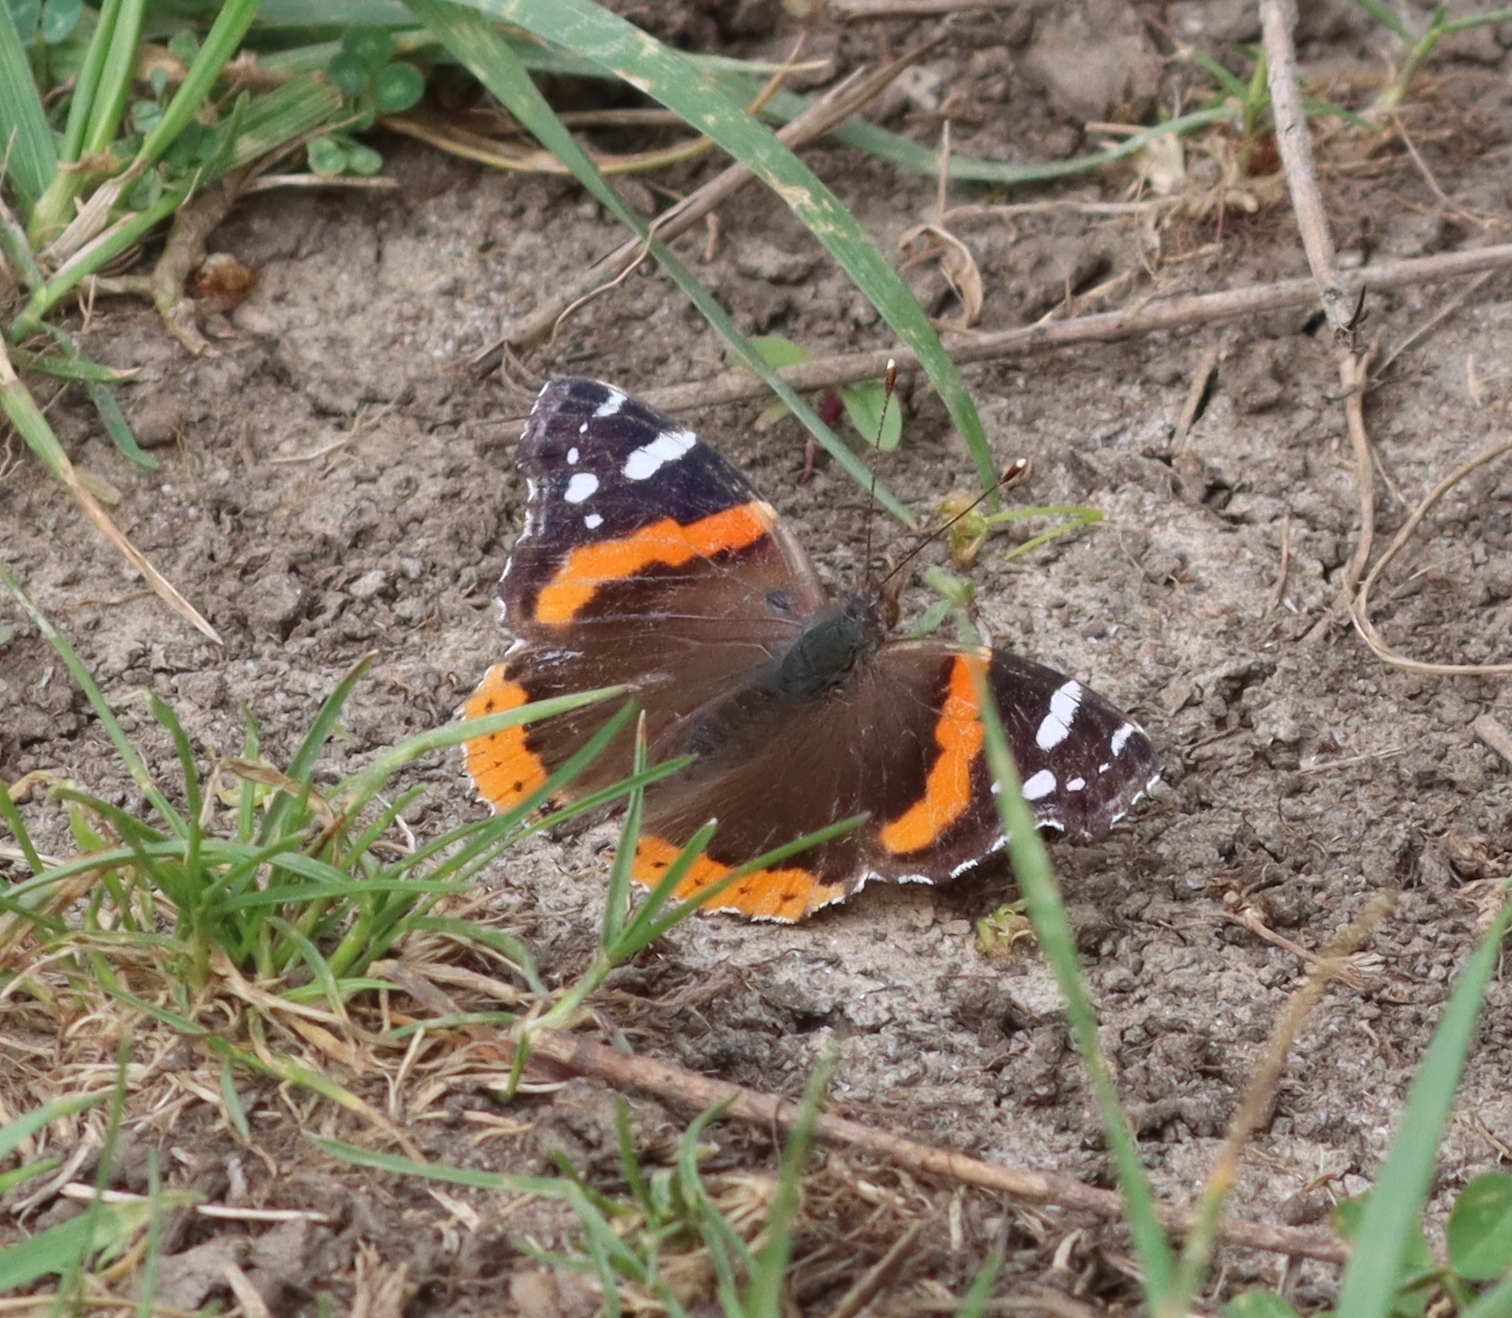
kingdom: Animalia
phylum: Arthropoda
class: Insecta
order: Lepidoptera
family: Nymphalidae
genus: Vanessa
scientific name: Vanessa atalanta
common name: Red admiral
